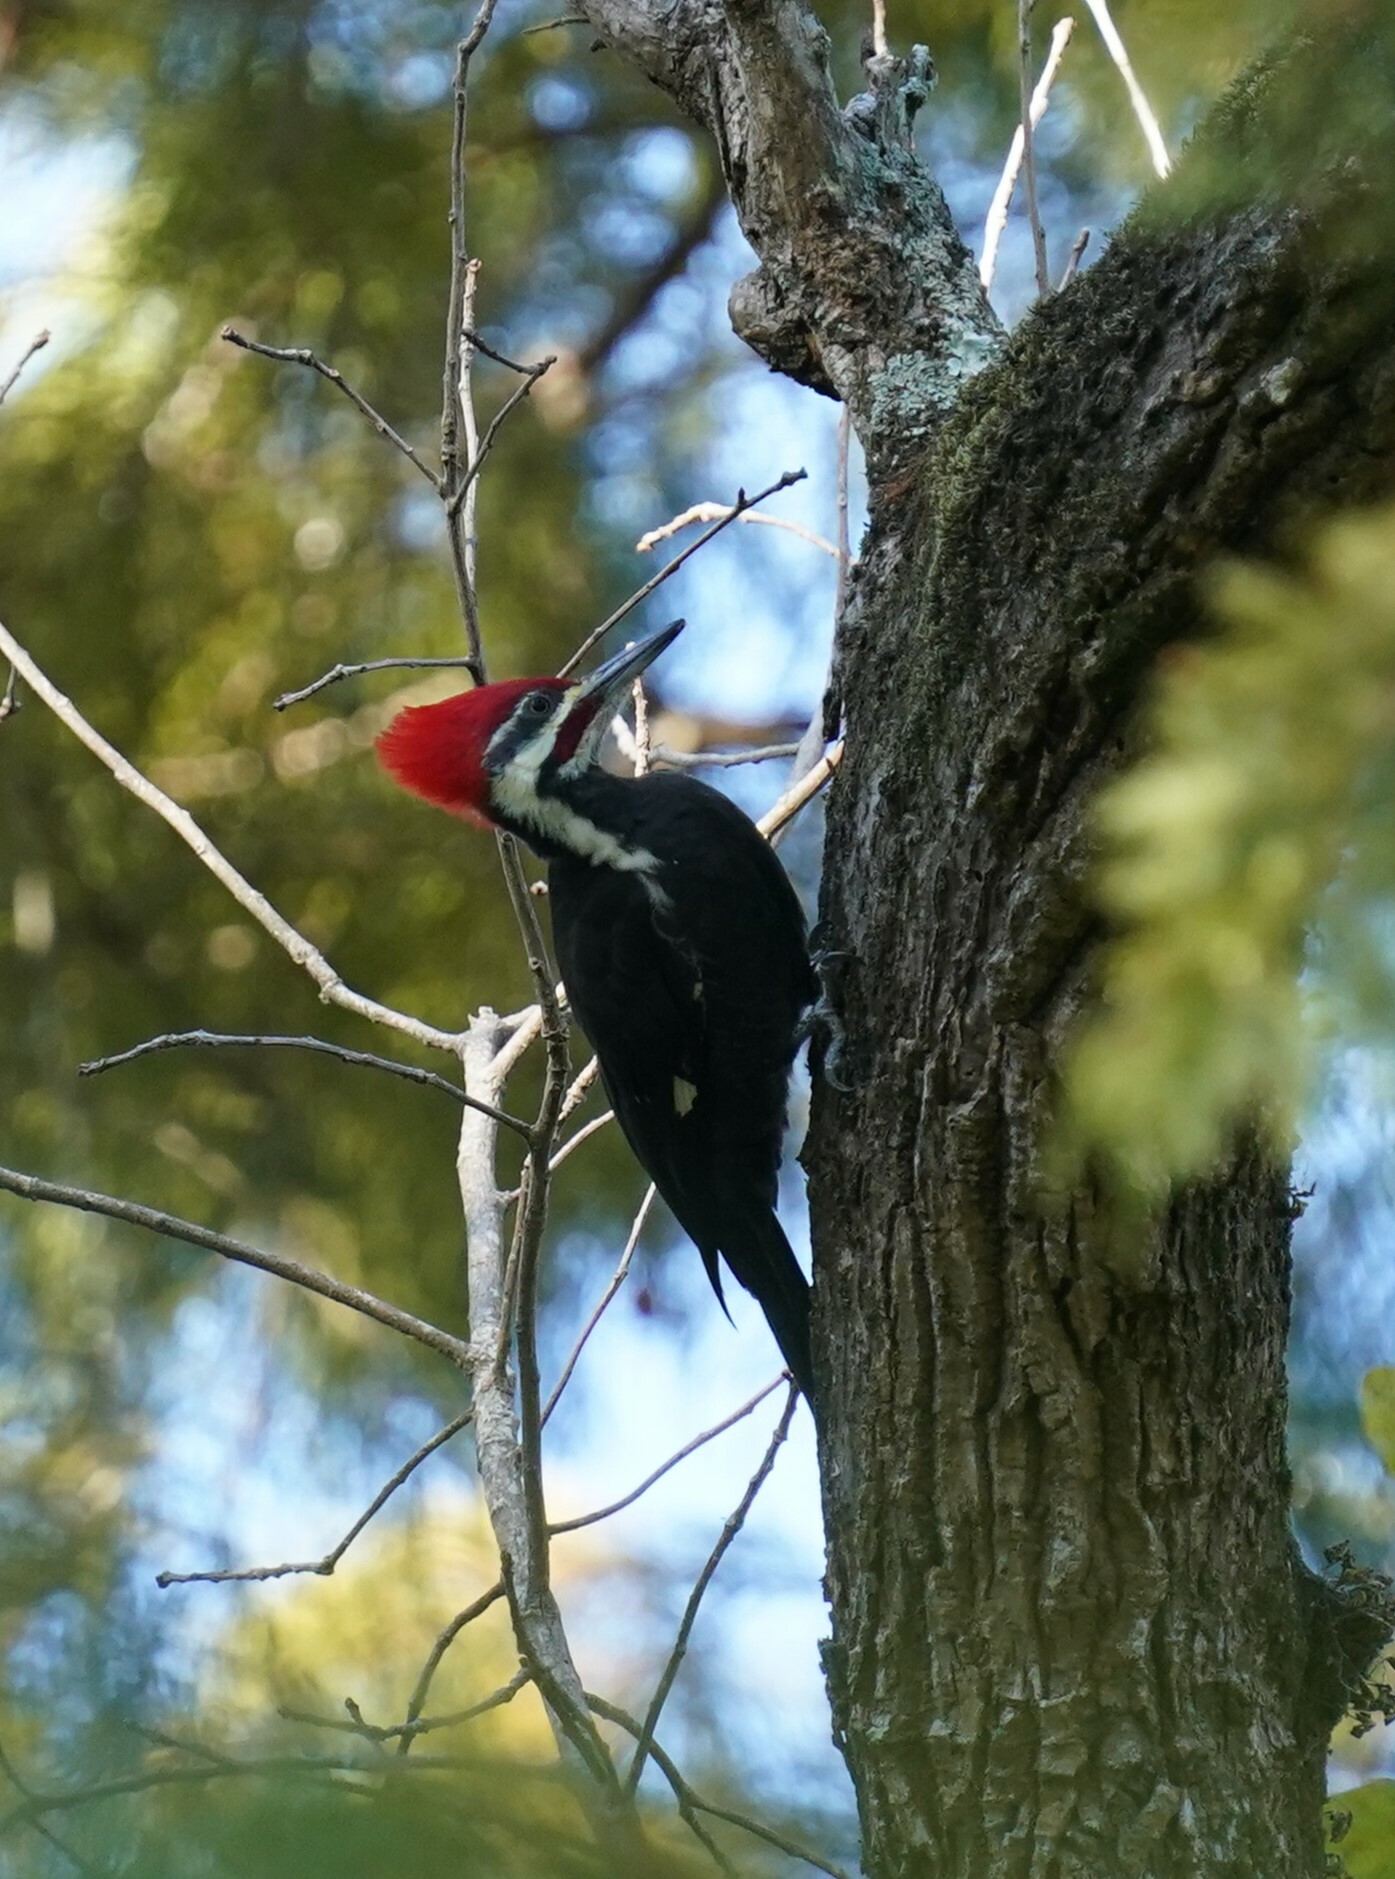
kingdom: Animalia
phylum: Chordata
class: Aves
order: Piciformes
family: Picidae
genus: Dryocopus
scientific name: Dryocopus pileatus
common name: Pileated woodpecker
